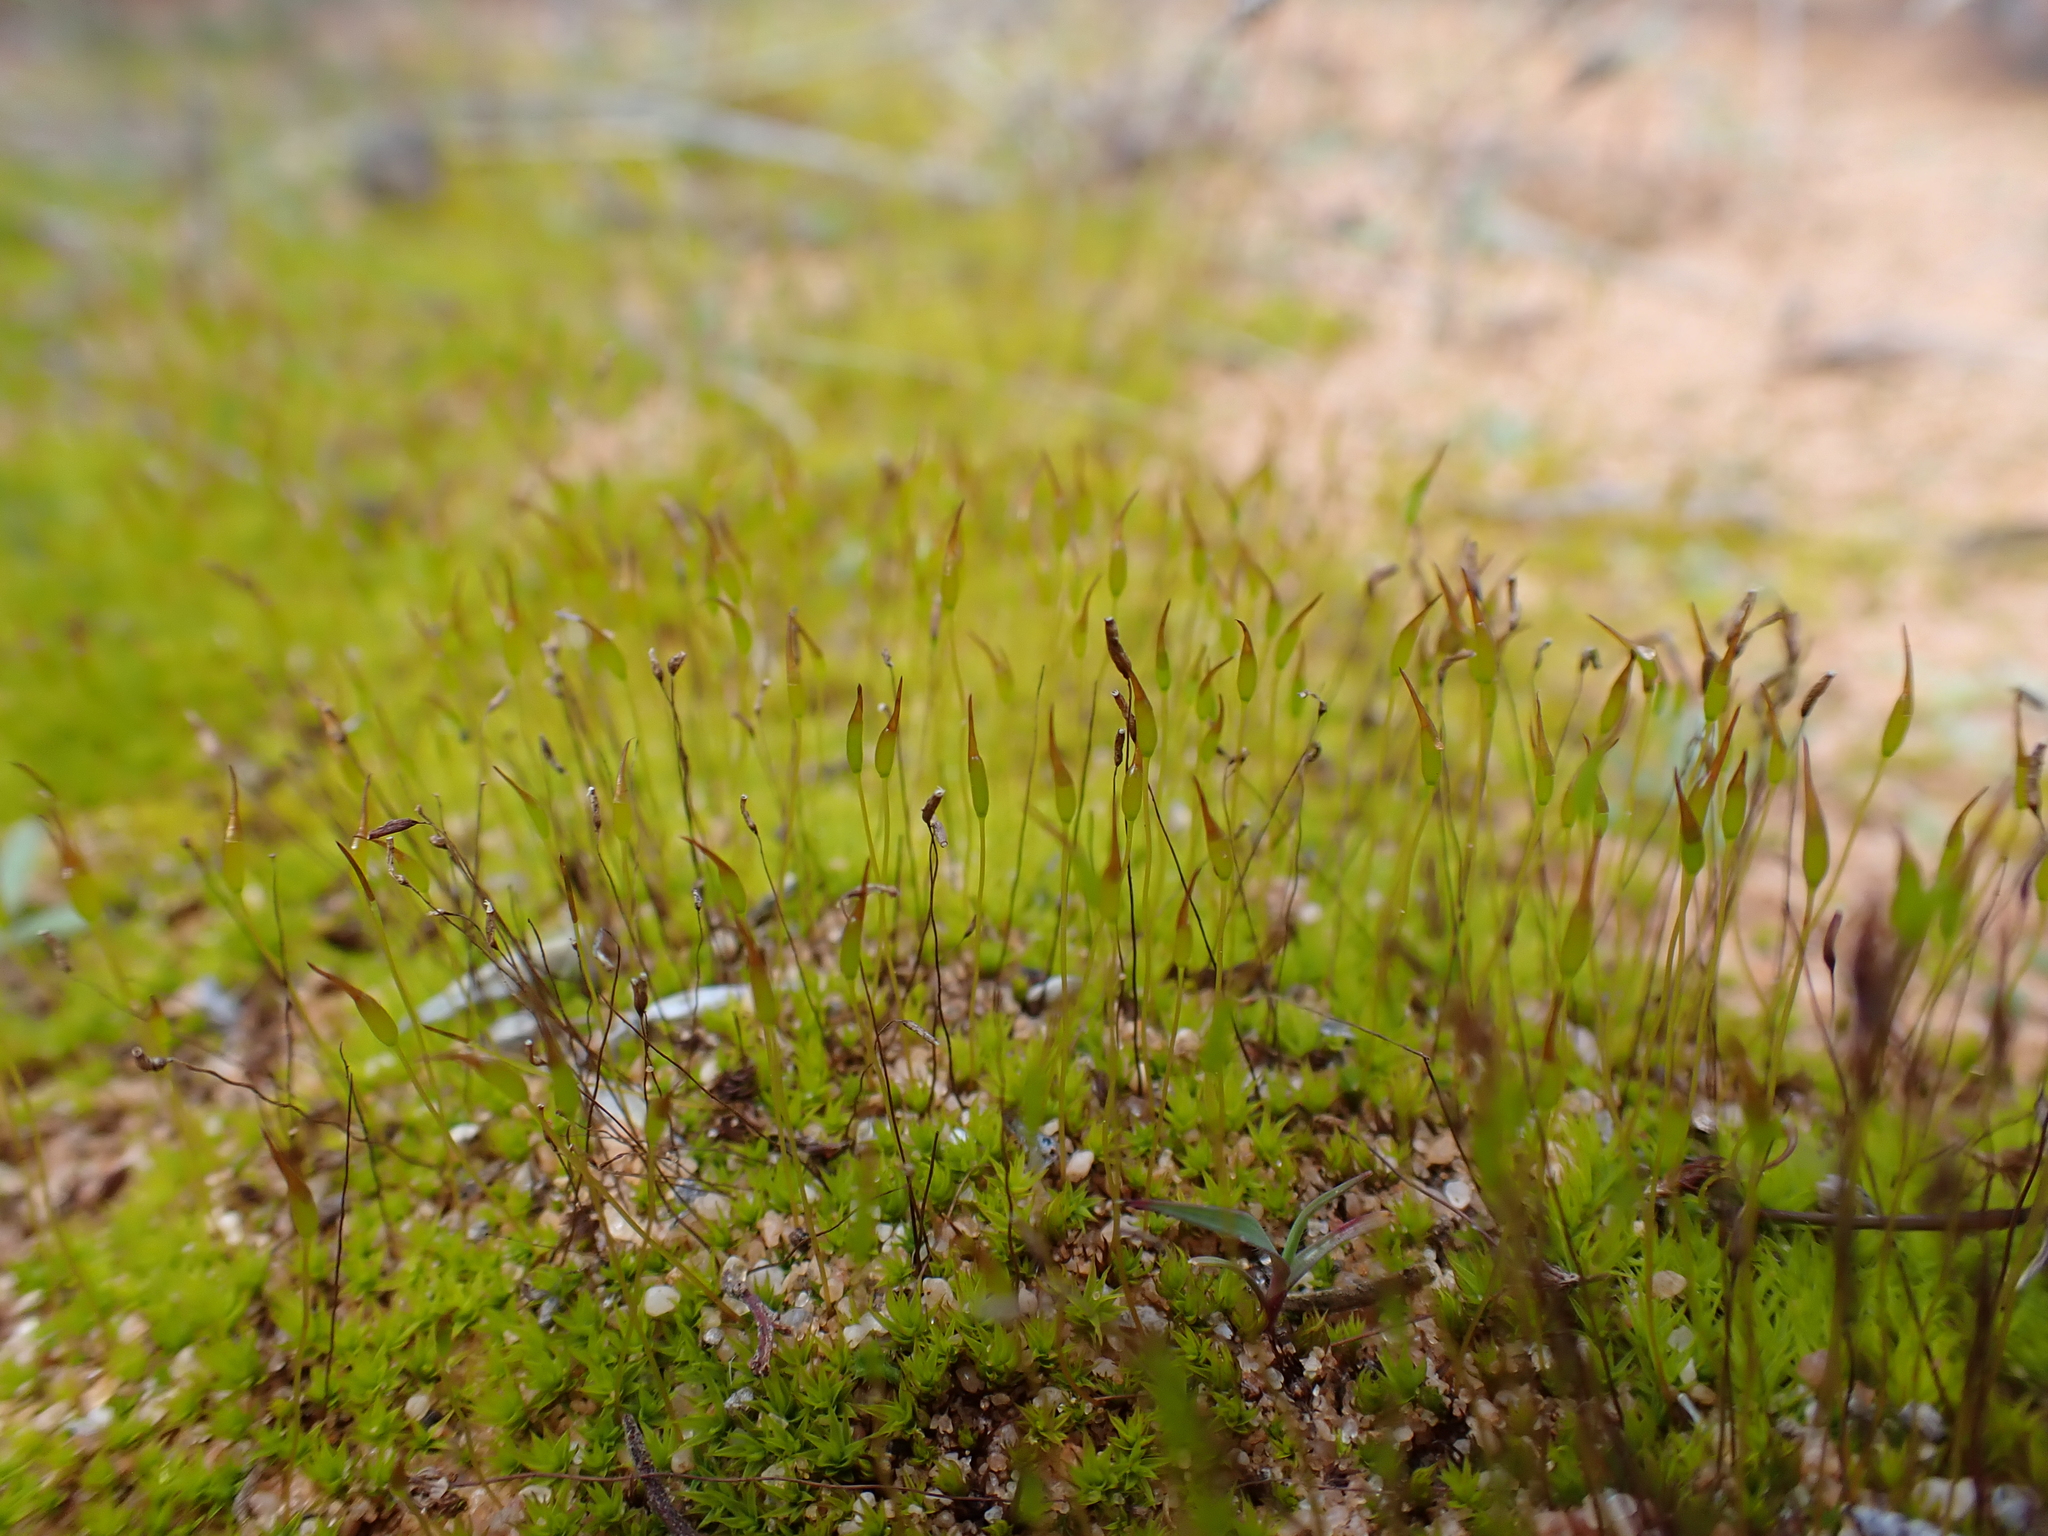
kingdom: Plantae
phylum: Bryophyta
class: Bryopsida
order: Pottiales
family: Pottiaceae
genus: Gertrudiella
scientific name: Gertrudiella torquata
